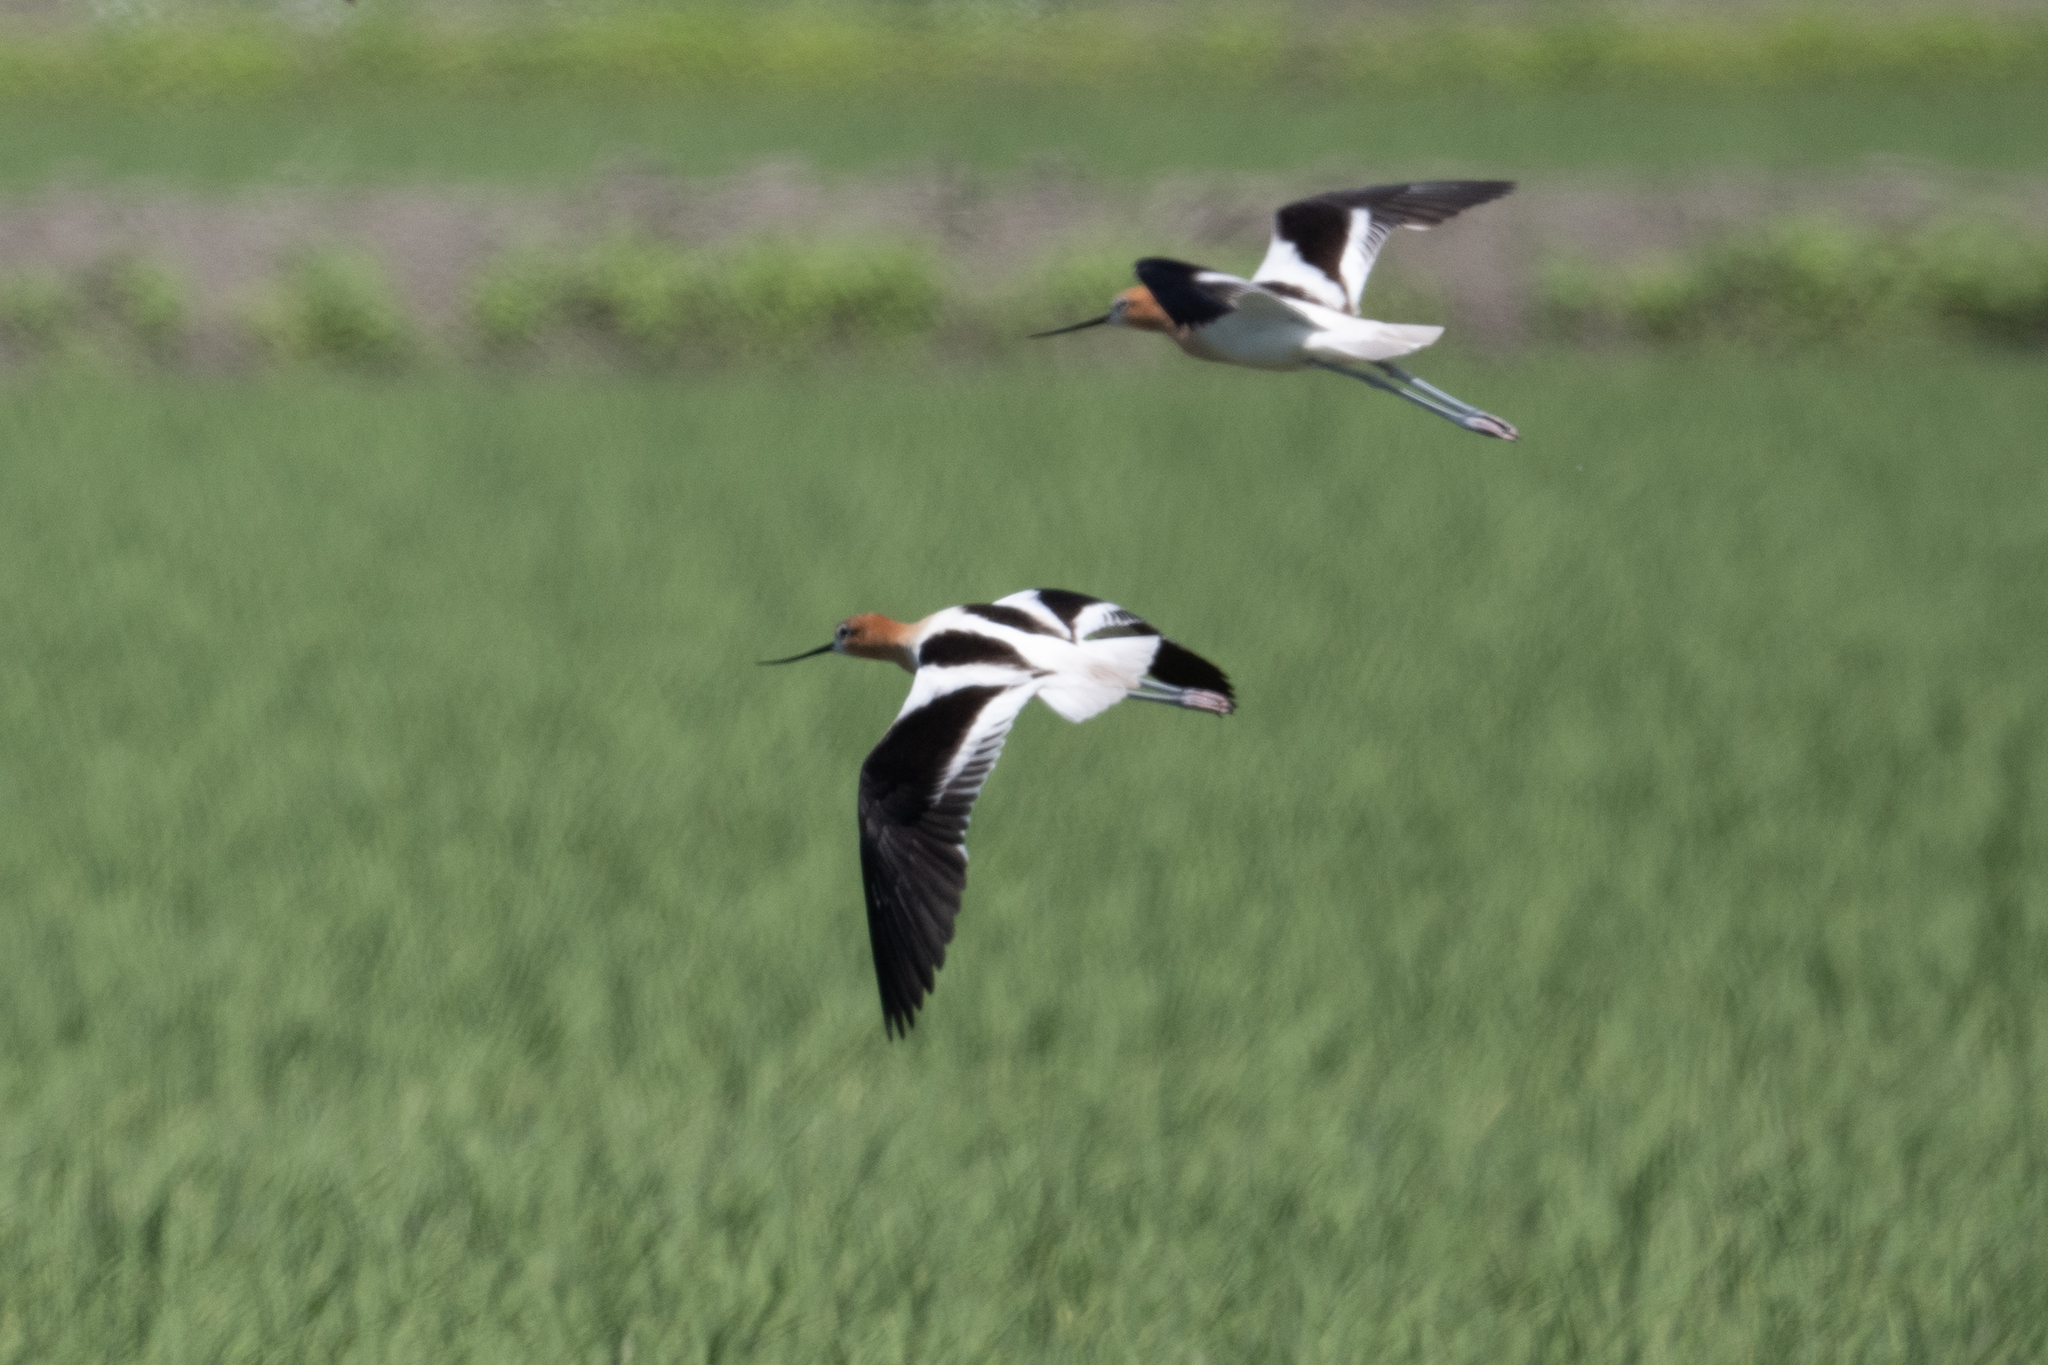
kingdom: Animalia
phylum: Chordata
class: Aves
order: Charadriiformes
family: Recurvirostridae
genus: Recurvirostra
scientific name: Recurvirostra americana
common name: American avocet
